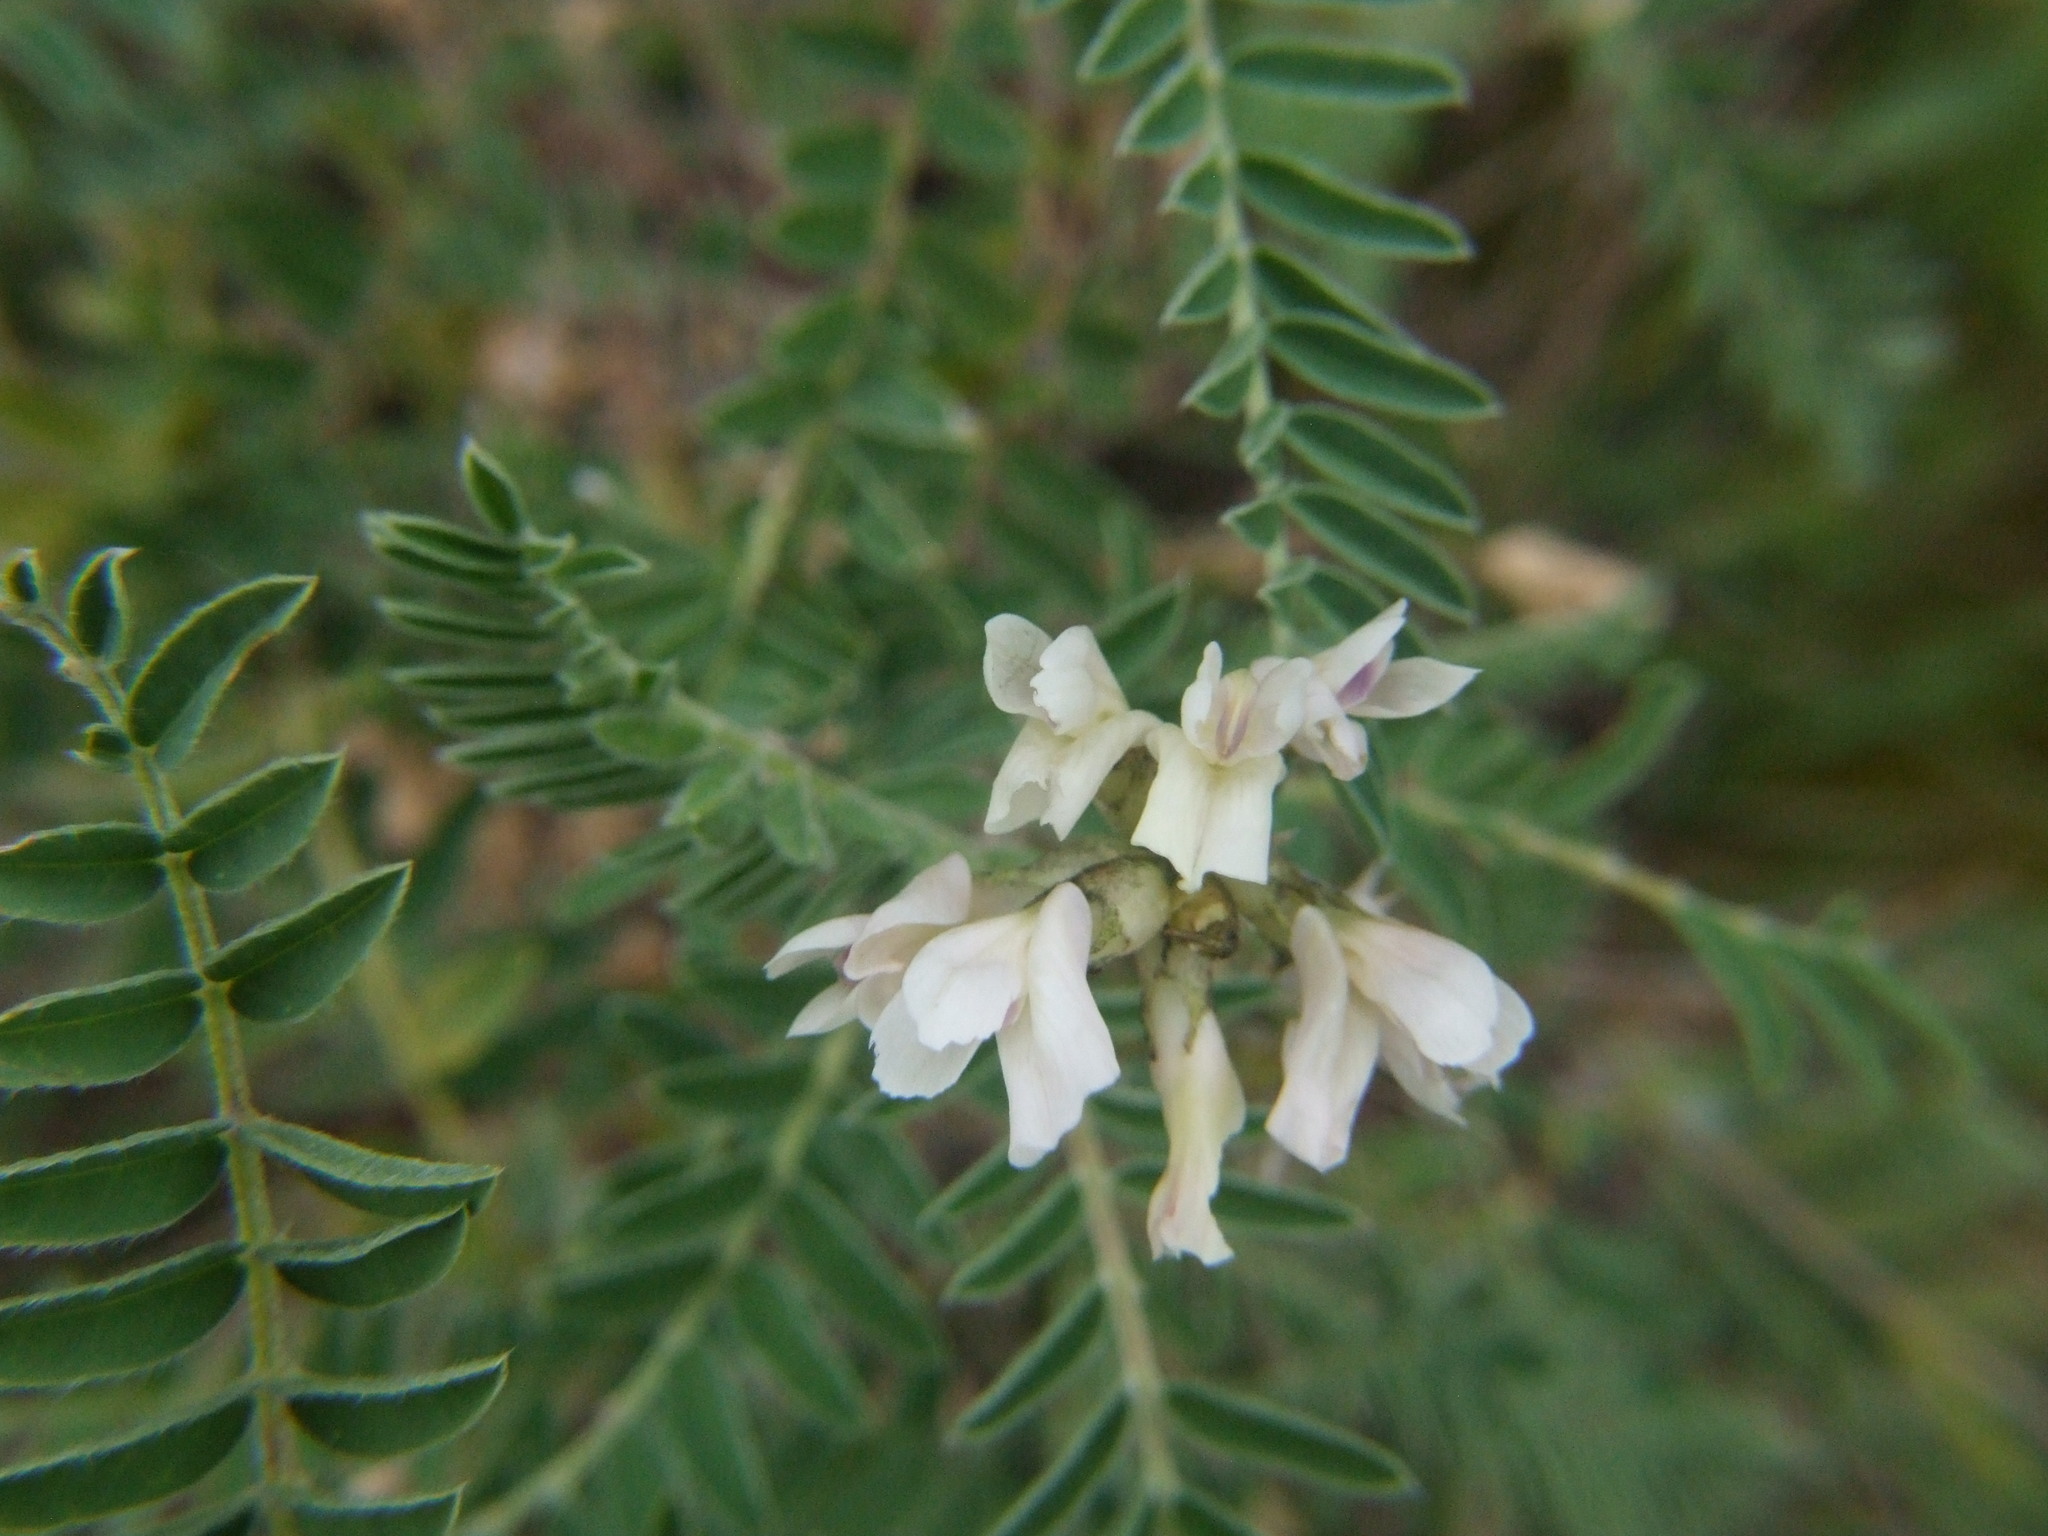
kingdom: Plantae
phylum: Tracheophyta
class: Magnoliopsida
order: Fabales
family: Fabaceae
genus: Astragalus
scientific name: Astragalus garbancillo
